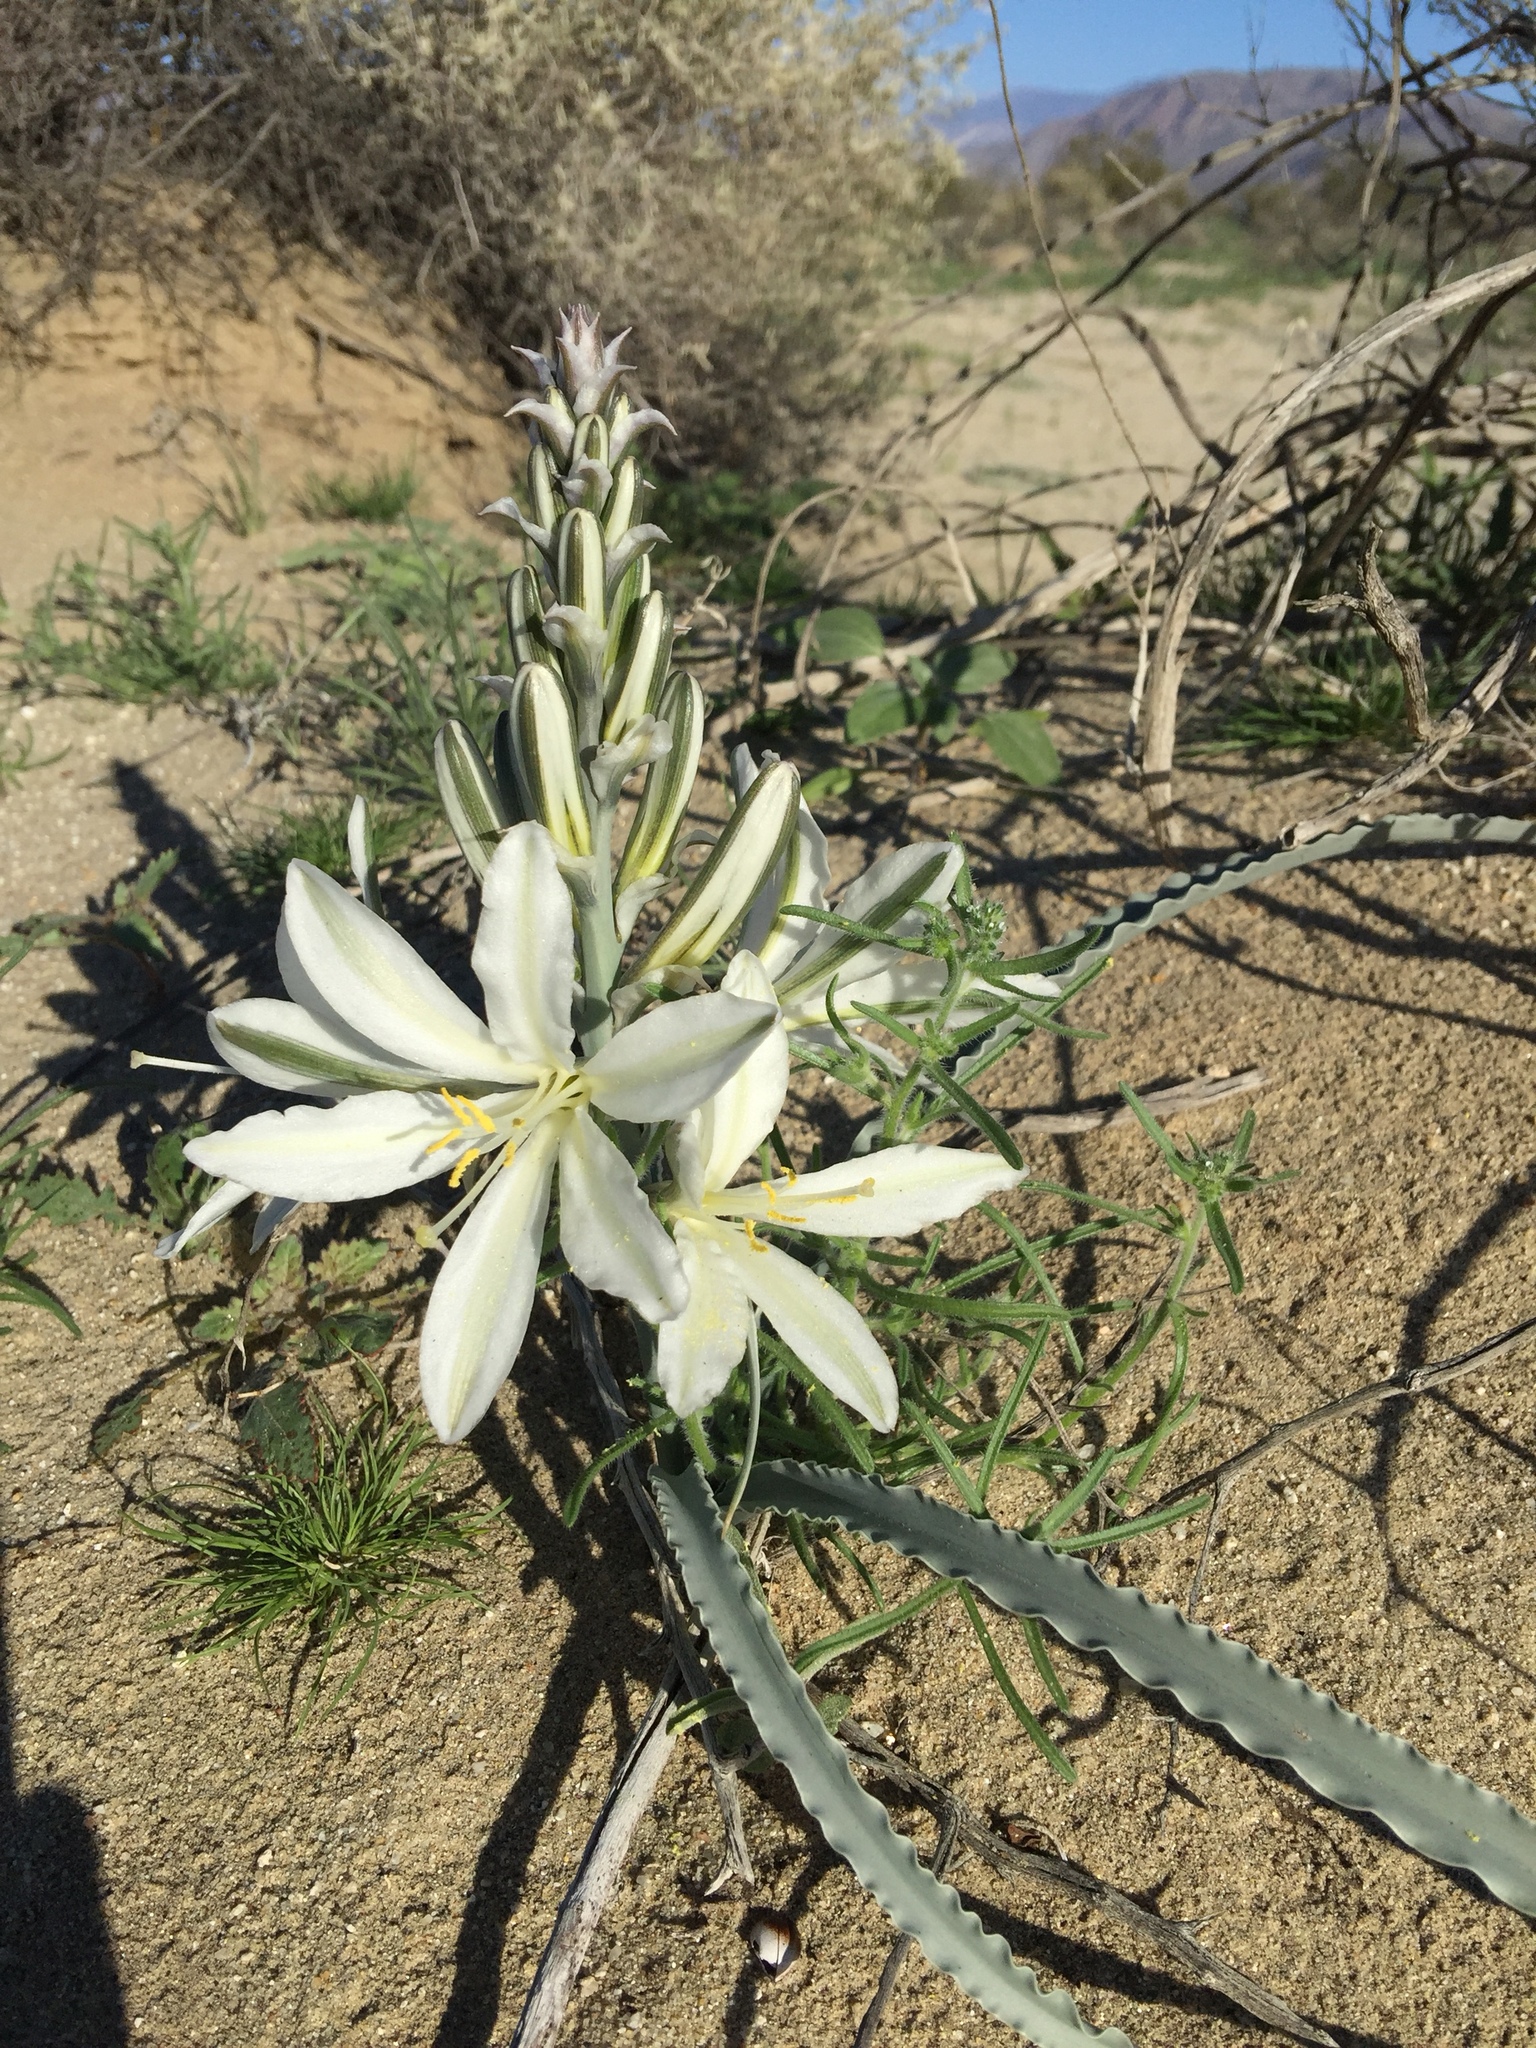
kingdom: Plantae
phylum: Tracheophyta
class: Liliopsida
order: Asparagales
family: Asparagaceae
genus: Hesperocallis
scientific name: Hesperocallis undulata
